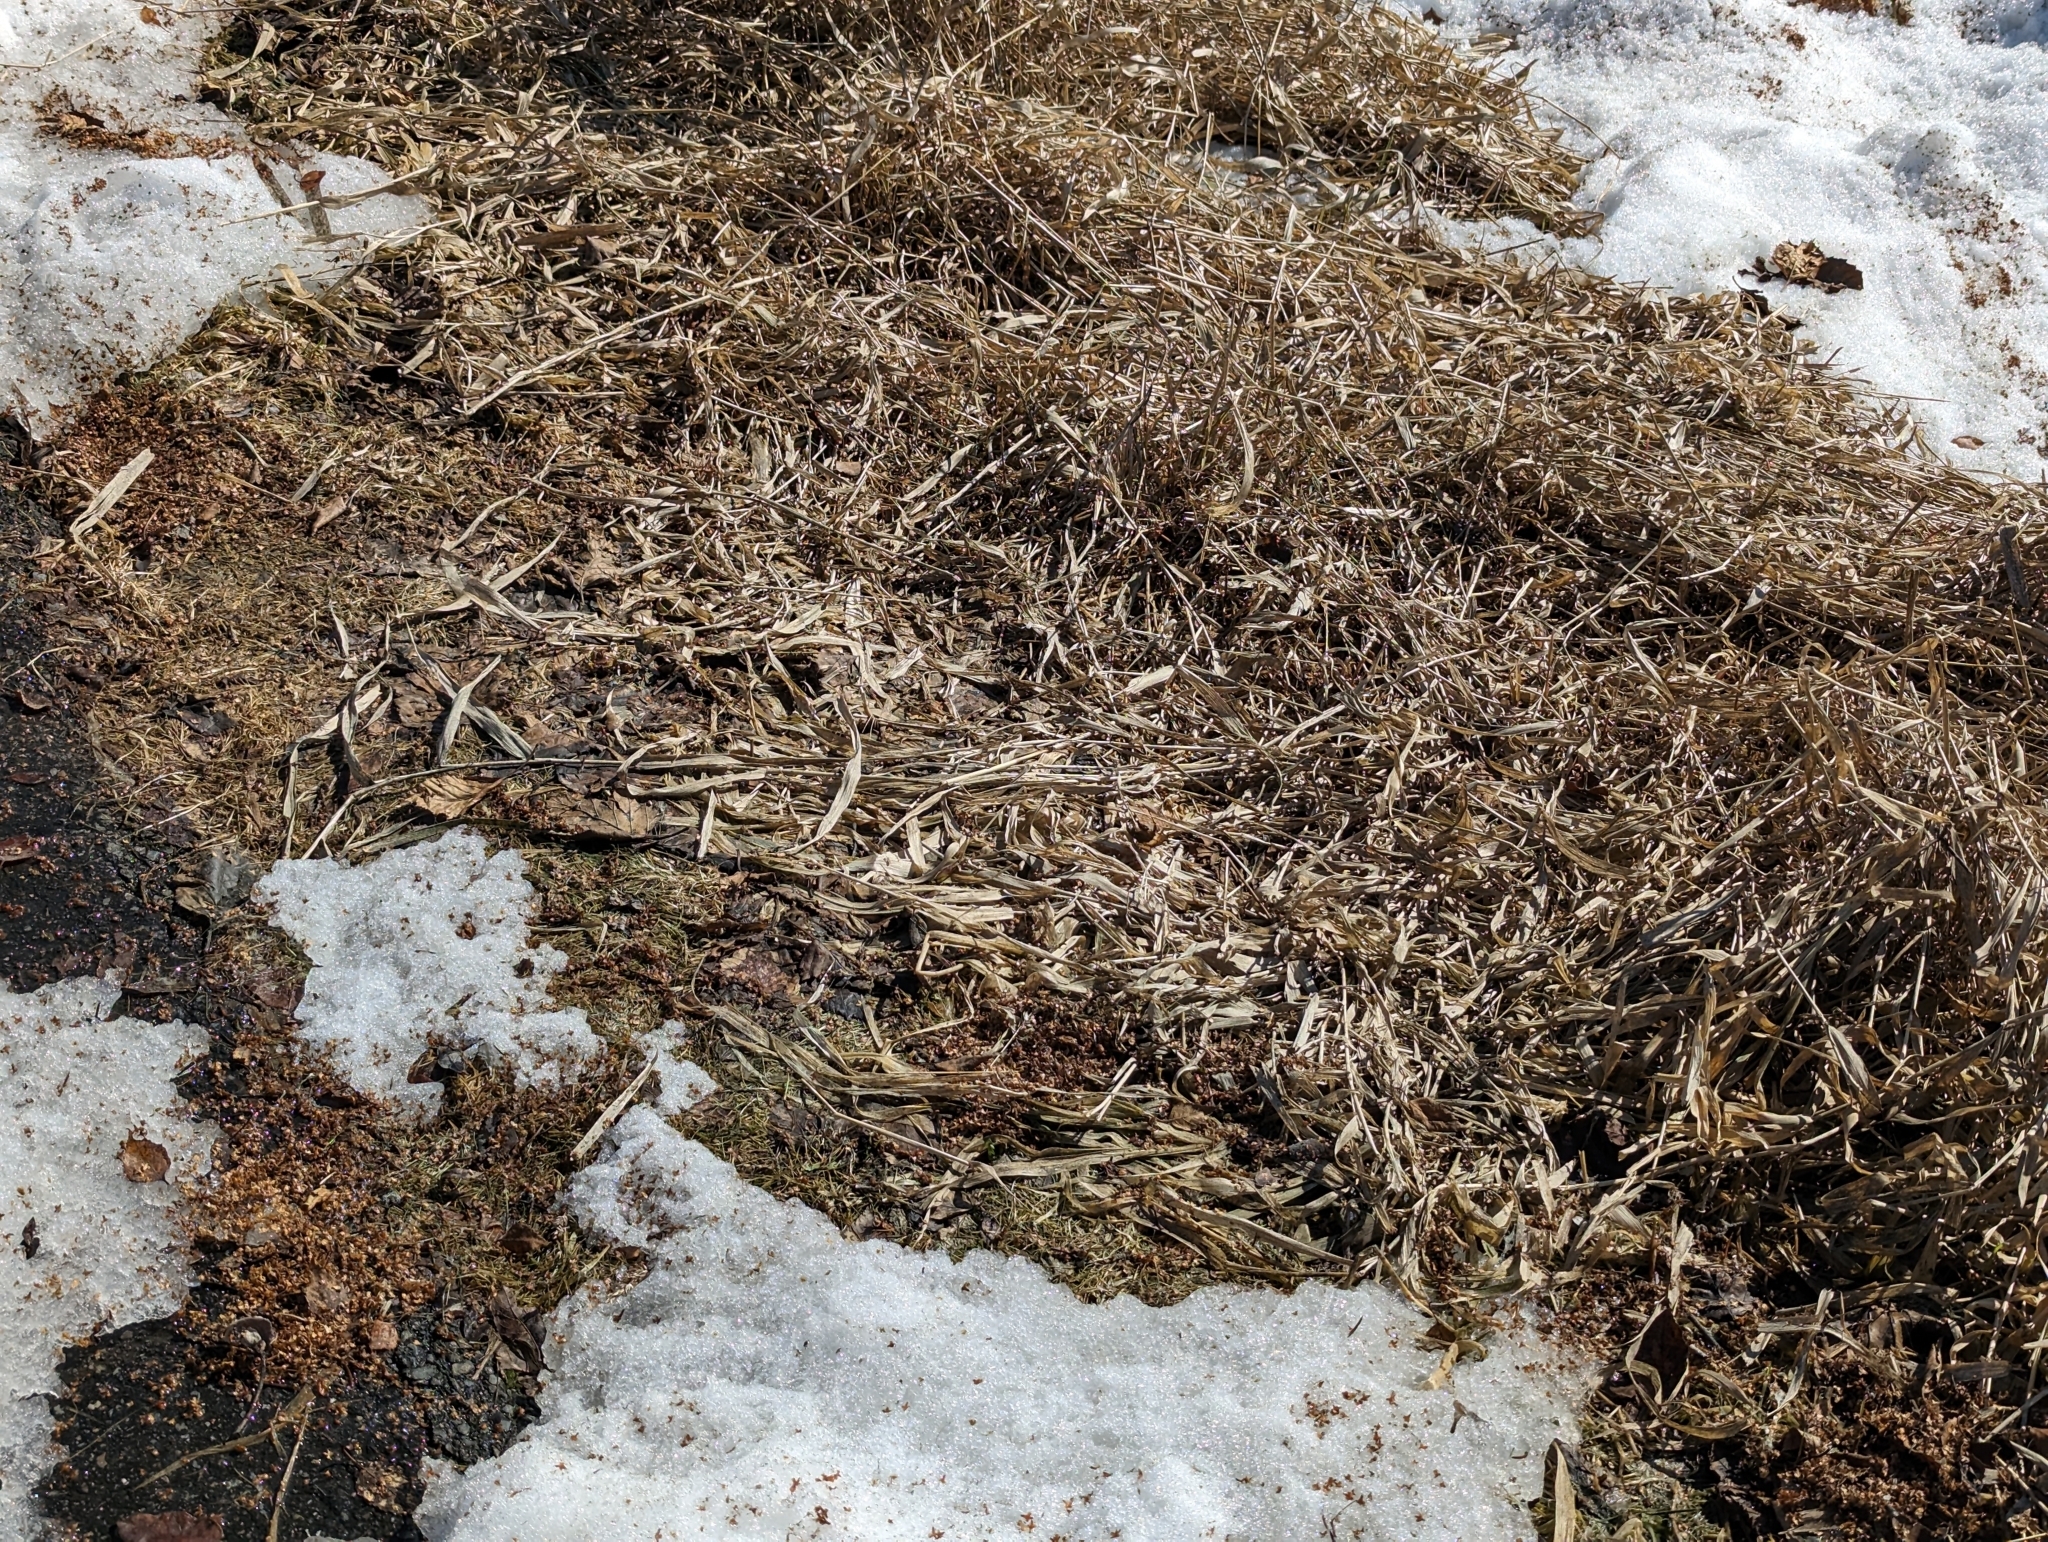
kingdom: Animalia
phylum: Arthropoda
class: Insecta
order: Lepidoptera
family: Nymphalidae
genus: Aglais
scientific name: Aglais milberti
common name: Milbert's tortoiseshell
